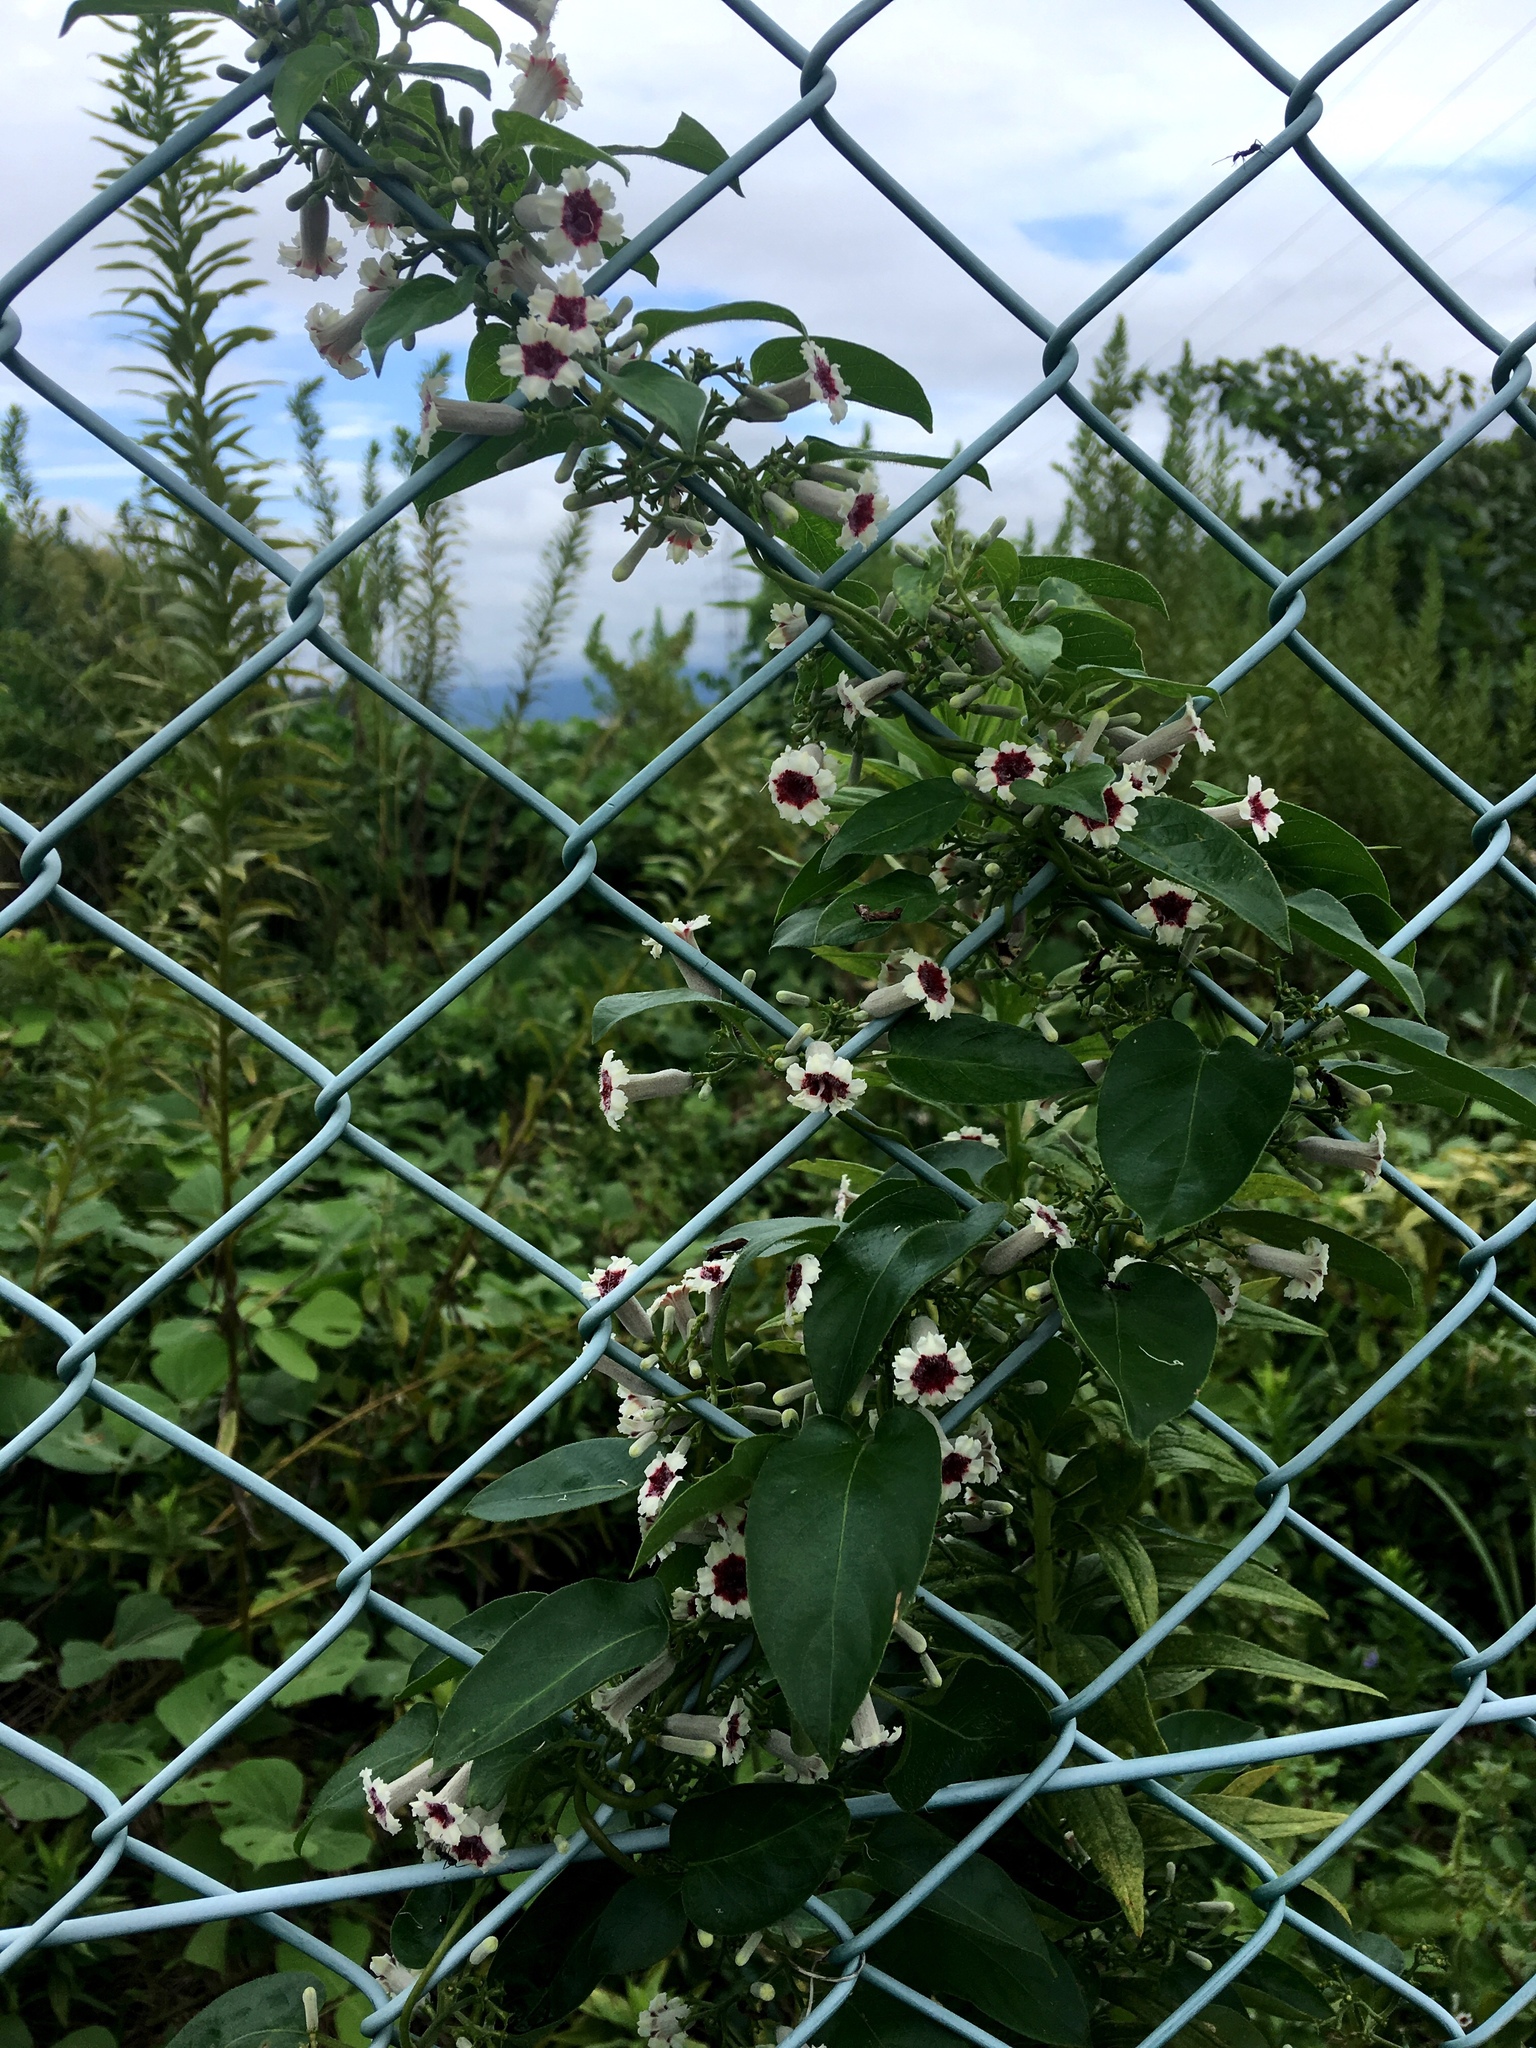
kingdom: Plantae
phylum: Tracheophyta
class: Magnoliopsida
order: Gentianales
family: Rubiaceae
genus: Paederia
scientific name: Paederia foetida
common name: Stinkvine
